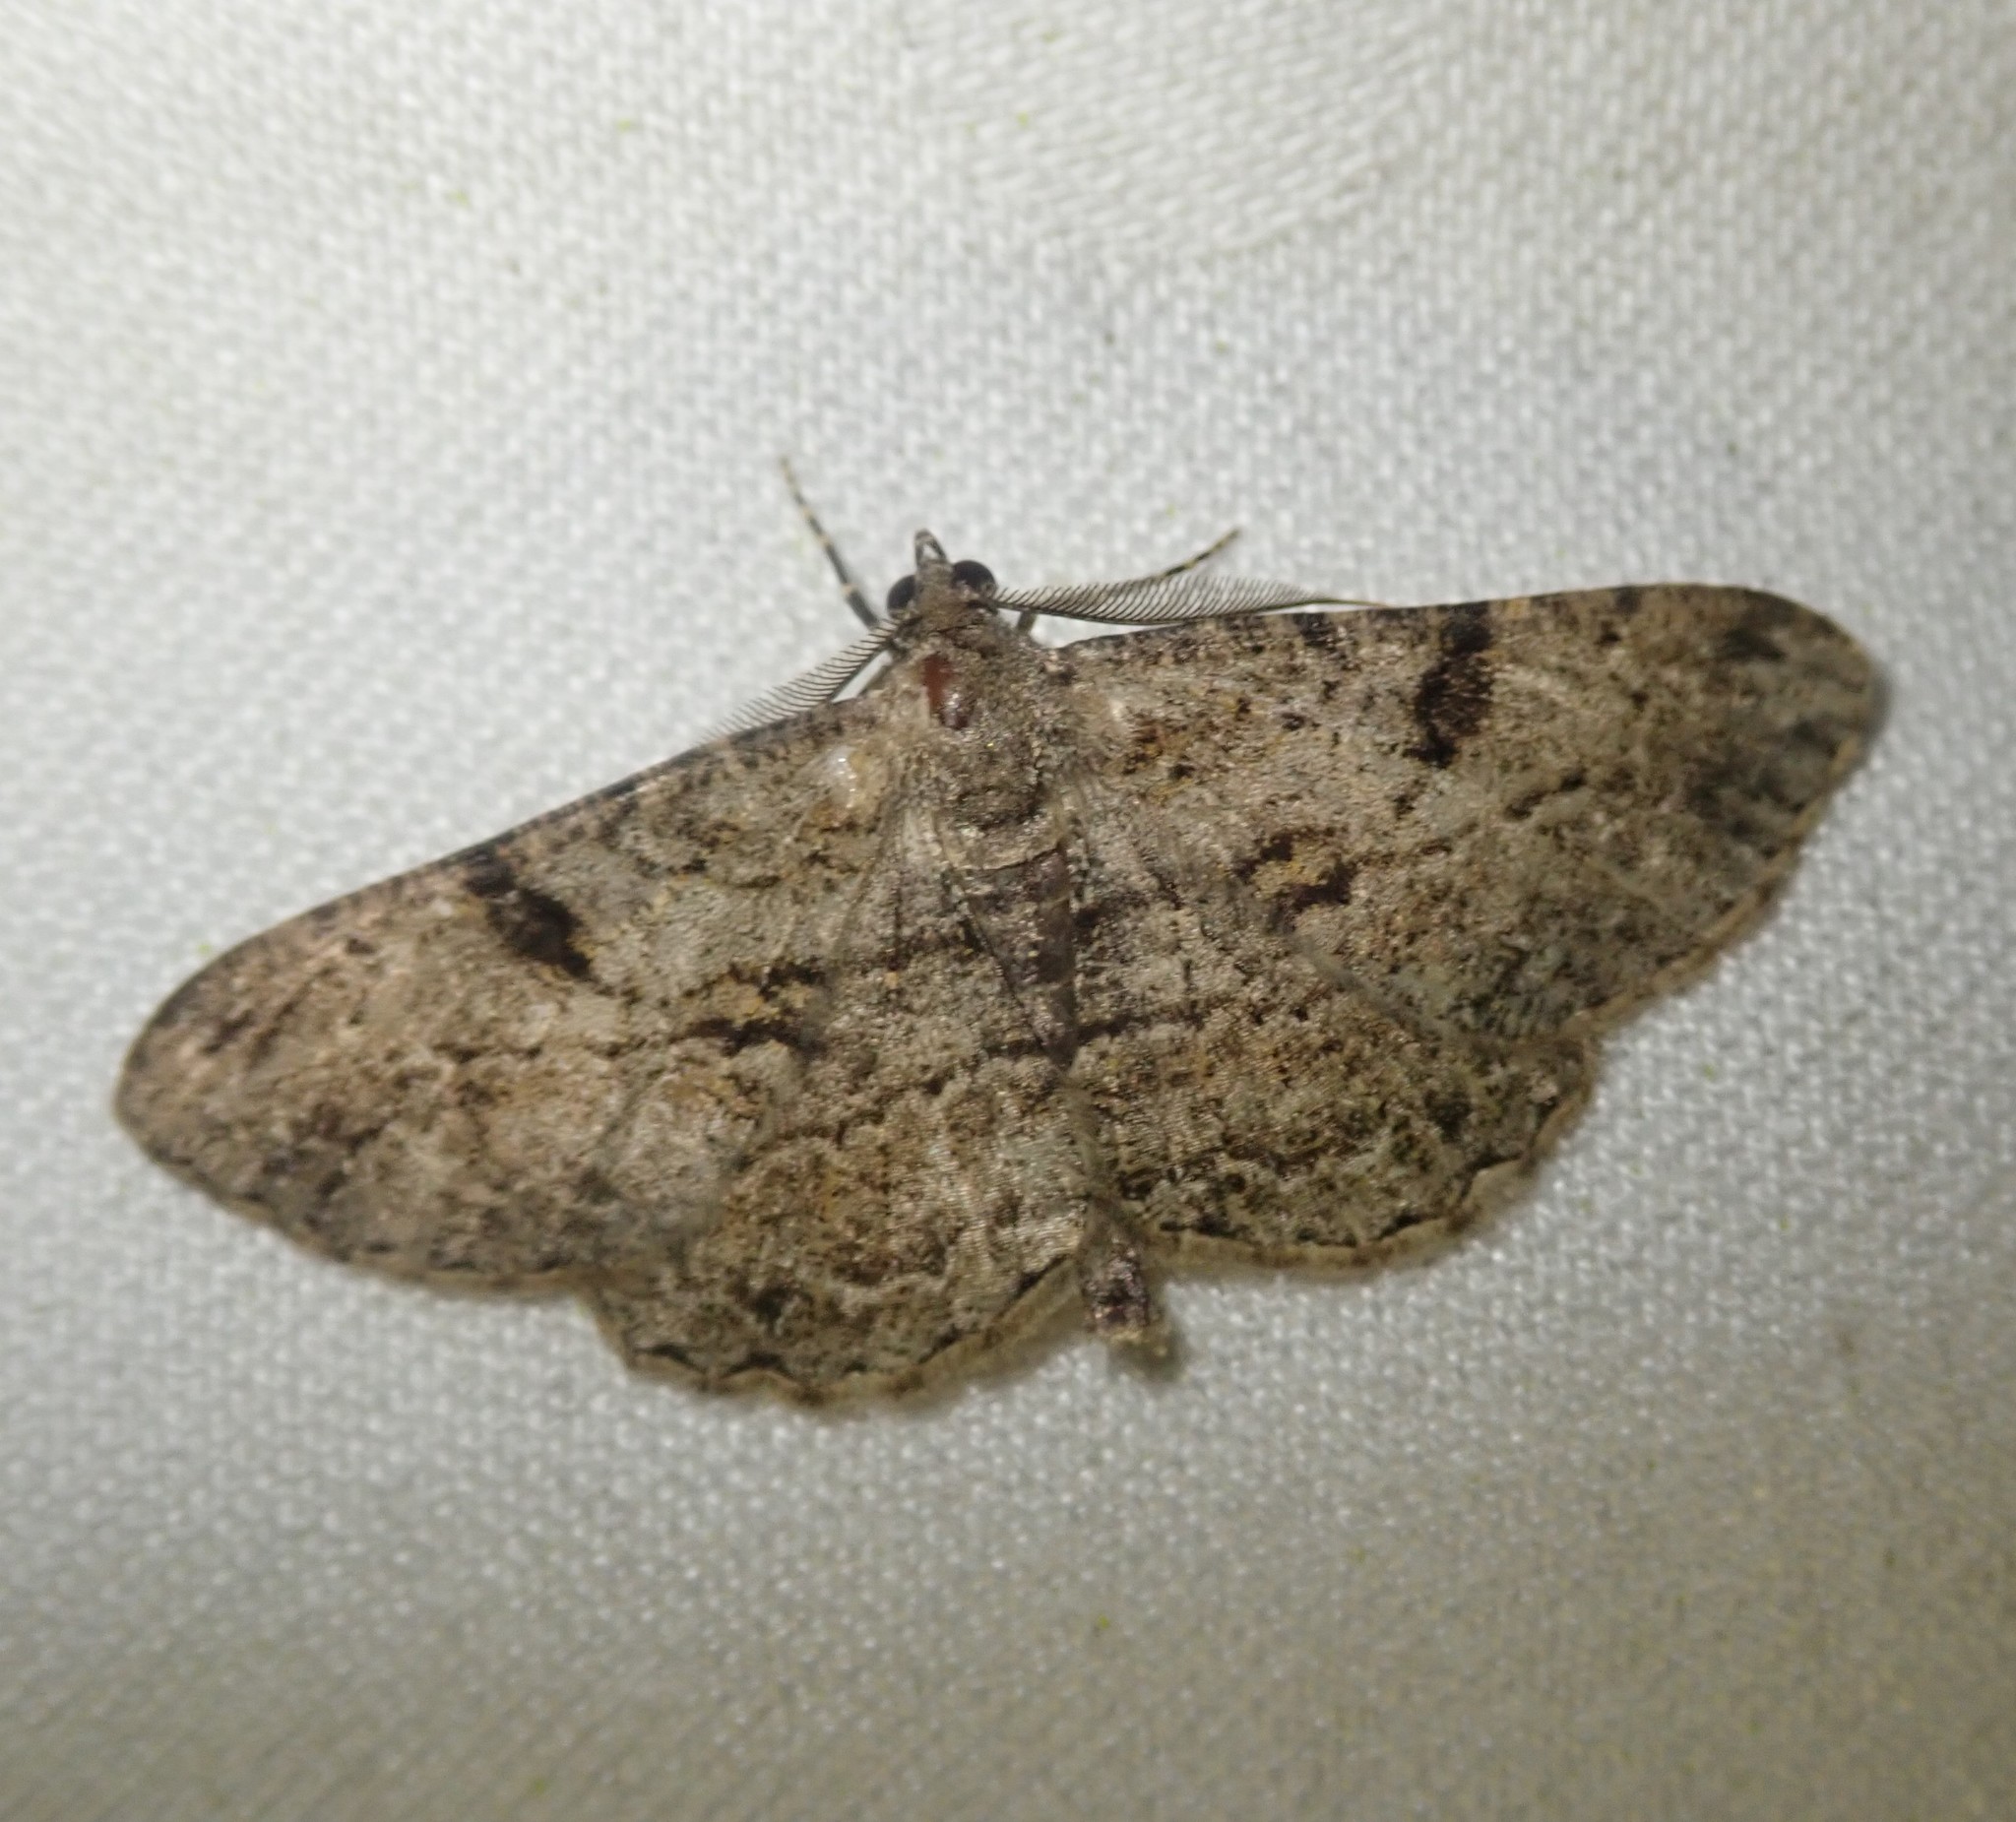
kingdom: Animalia
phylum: Arthropoda
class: Insecta
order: Lepidoptera
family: Geometridae
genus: Peribatodes
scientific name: Peribatodes rhomboidaria
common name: Willow beauty
